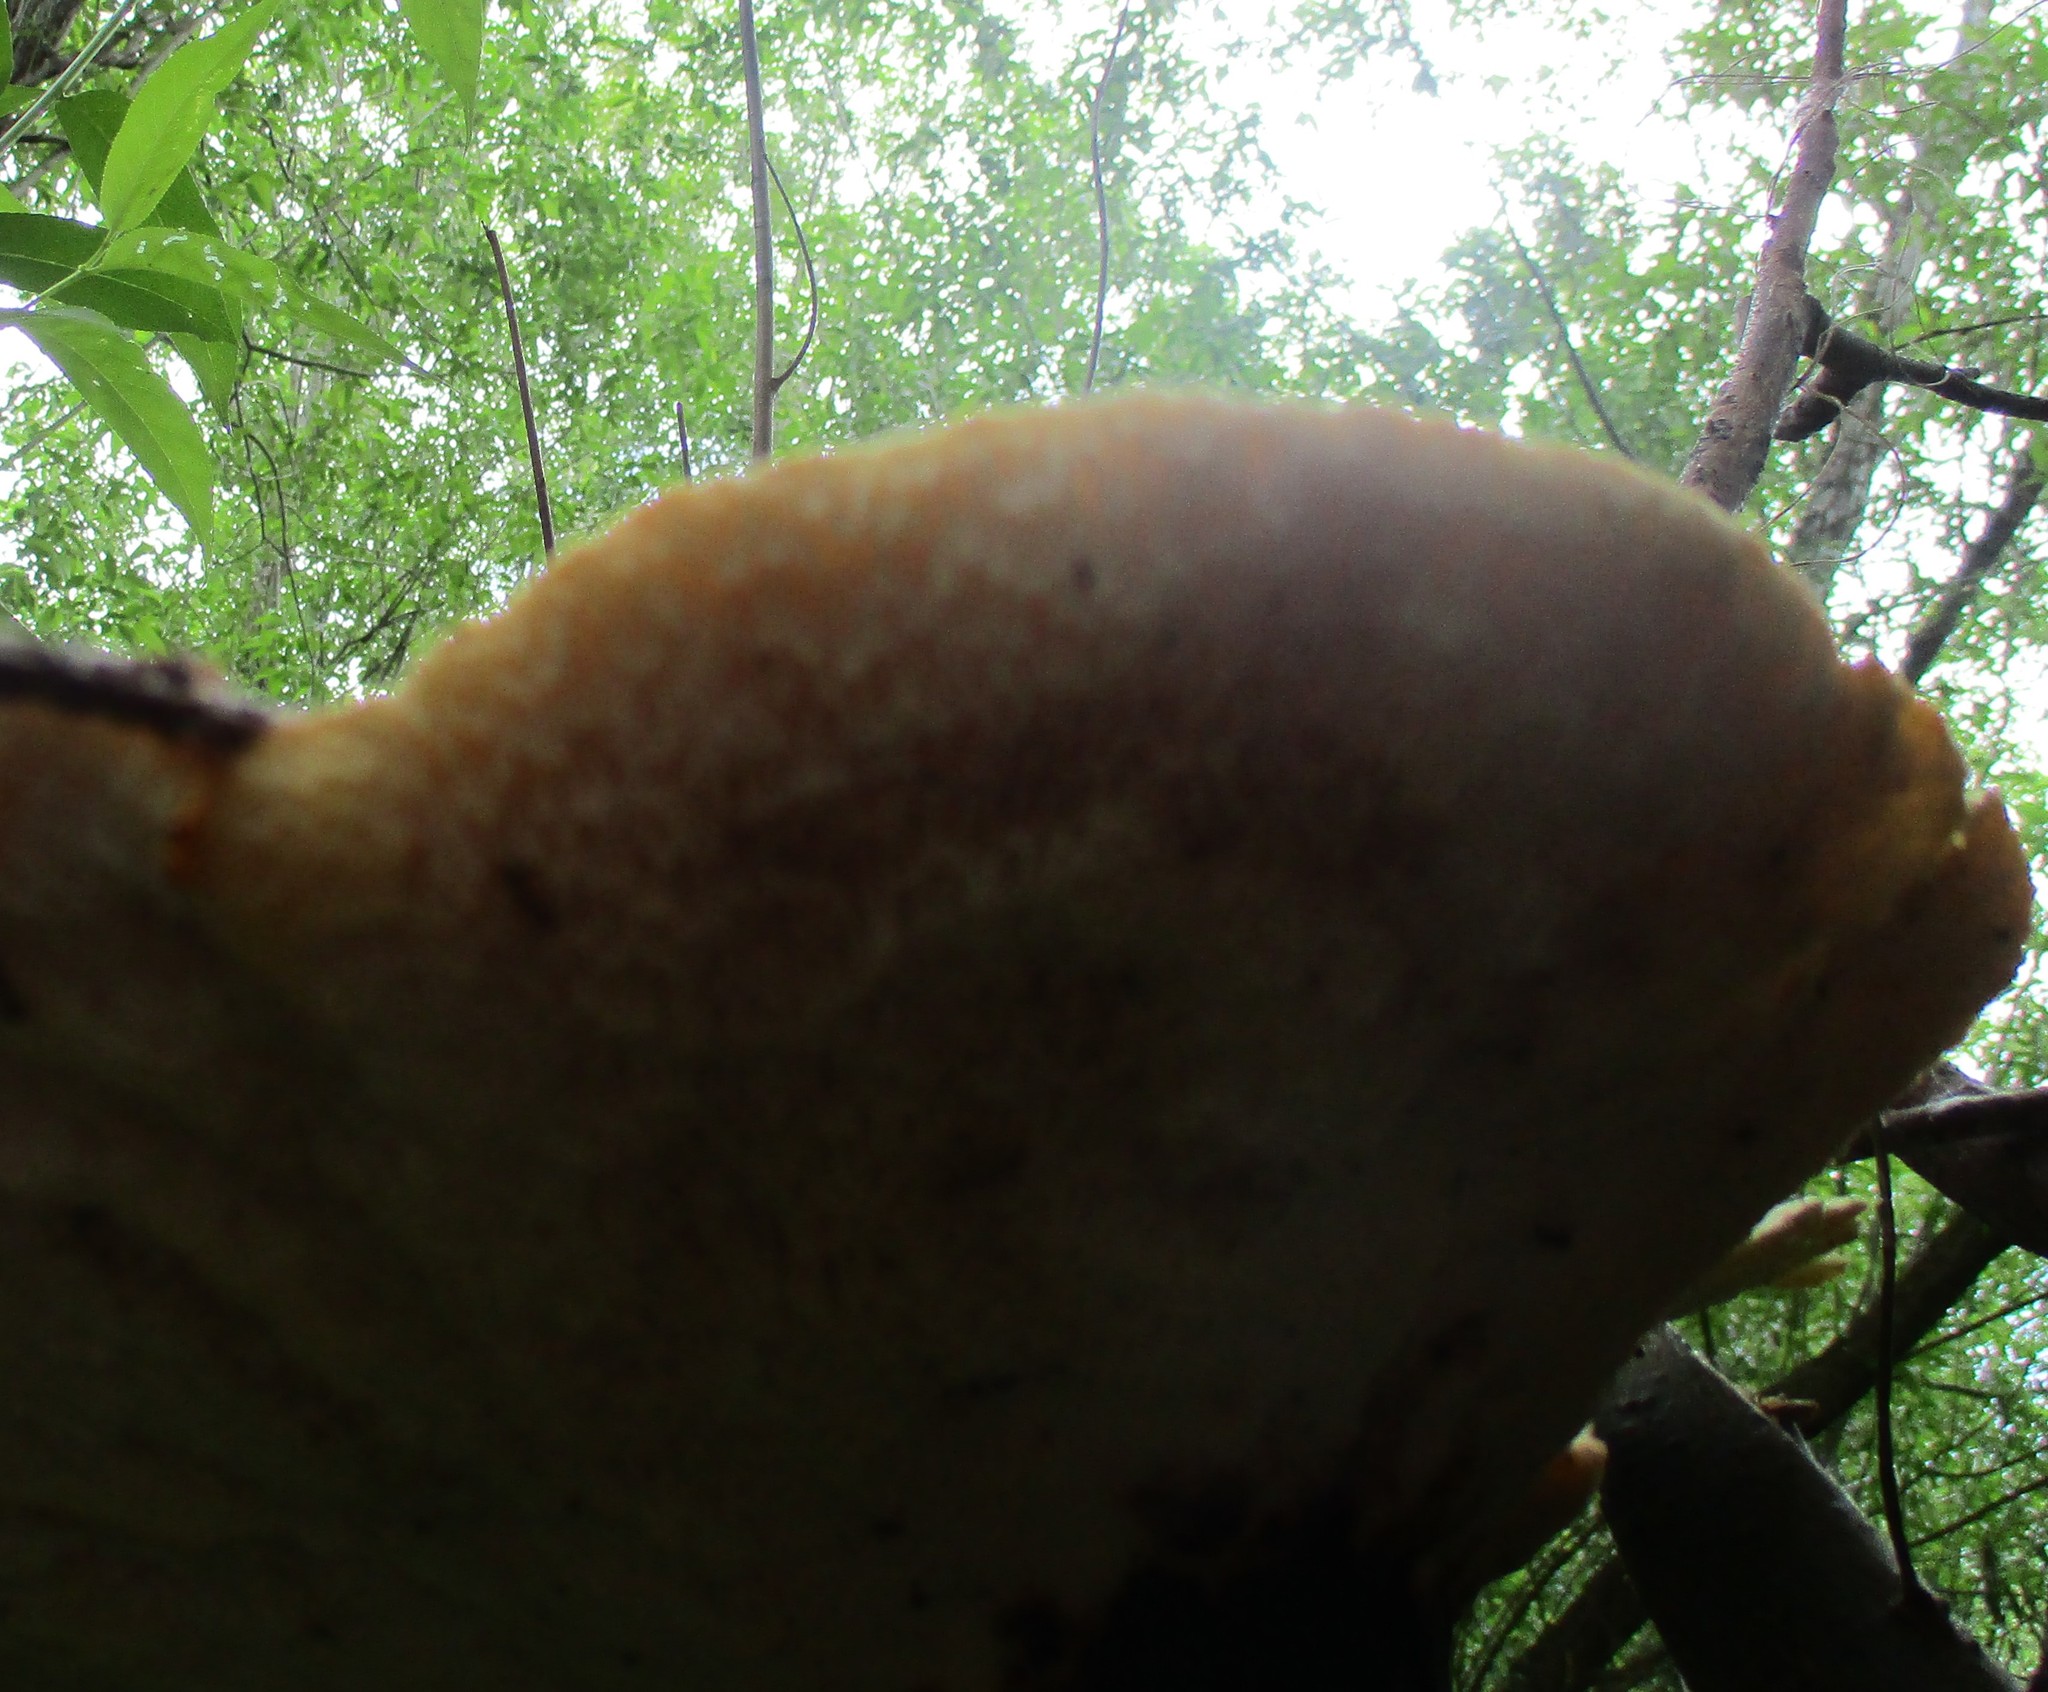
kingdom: Fungi
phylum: Basidiomycota
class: Agaricomycetes
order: Polyporales
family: Polyporaceae
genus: Cerioporus
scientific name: Cerioporus squamosus
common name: Dryad's saddle
